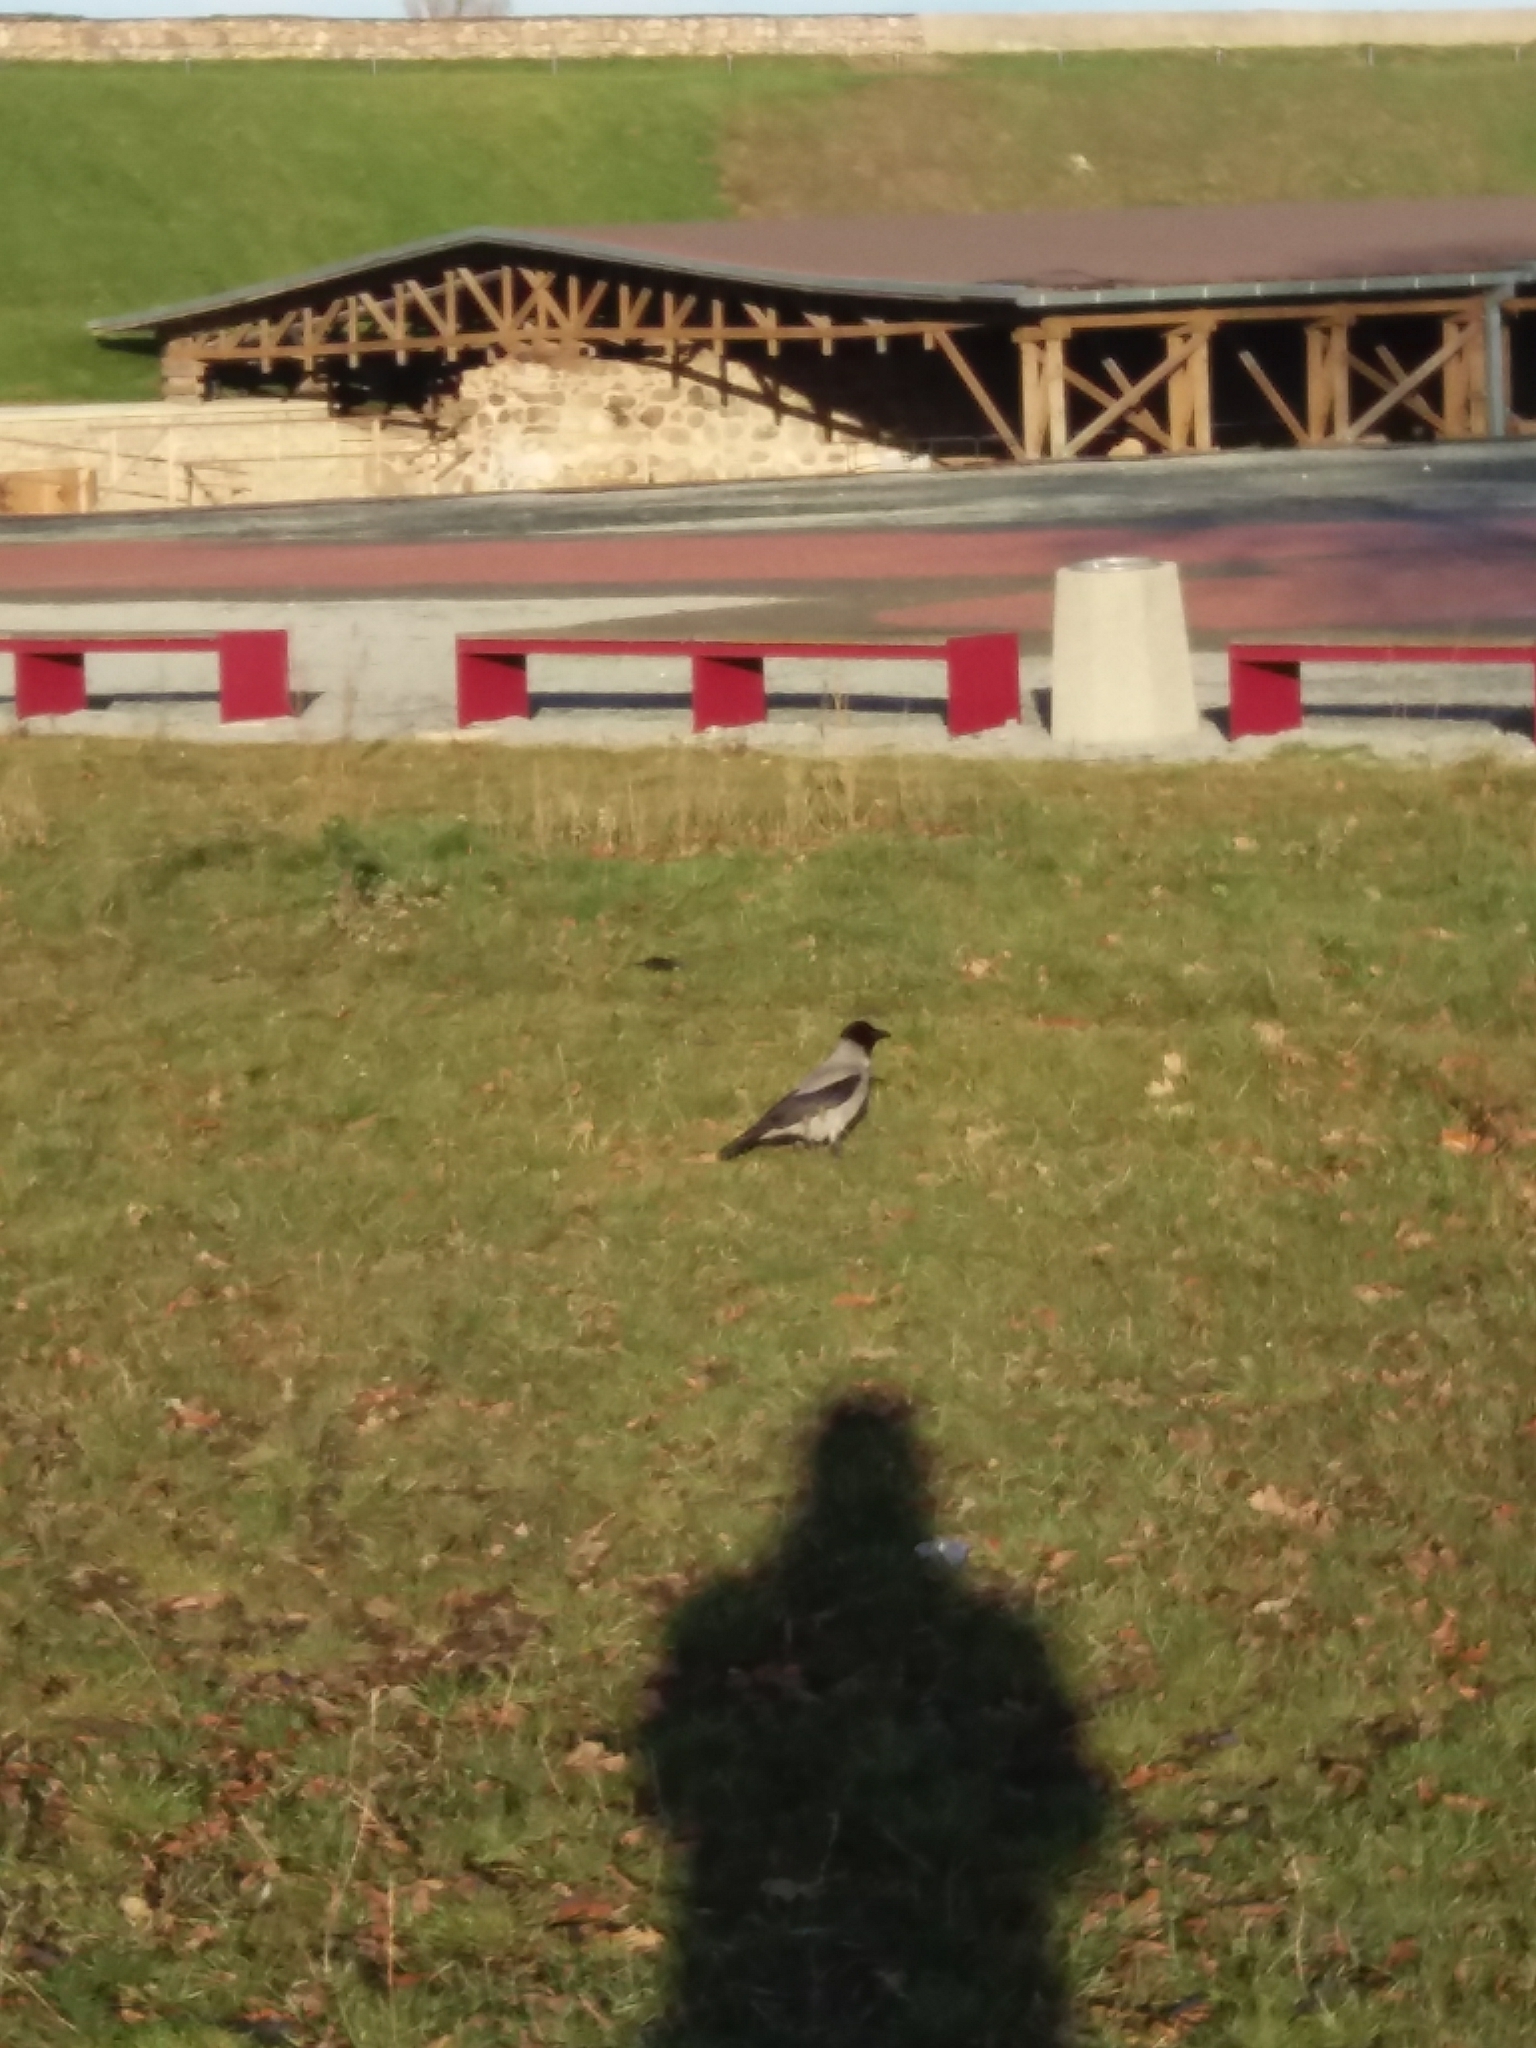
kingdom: Animalia
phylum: Chordata
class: Aves
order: Passeriformes
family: Corvidae
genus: Corvus
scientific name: Corvus cornix
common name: Hooded crow
